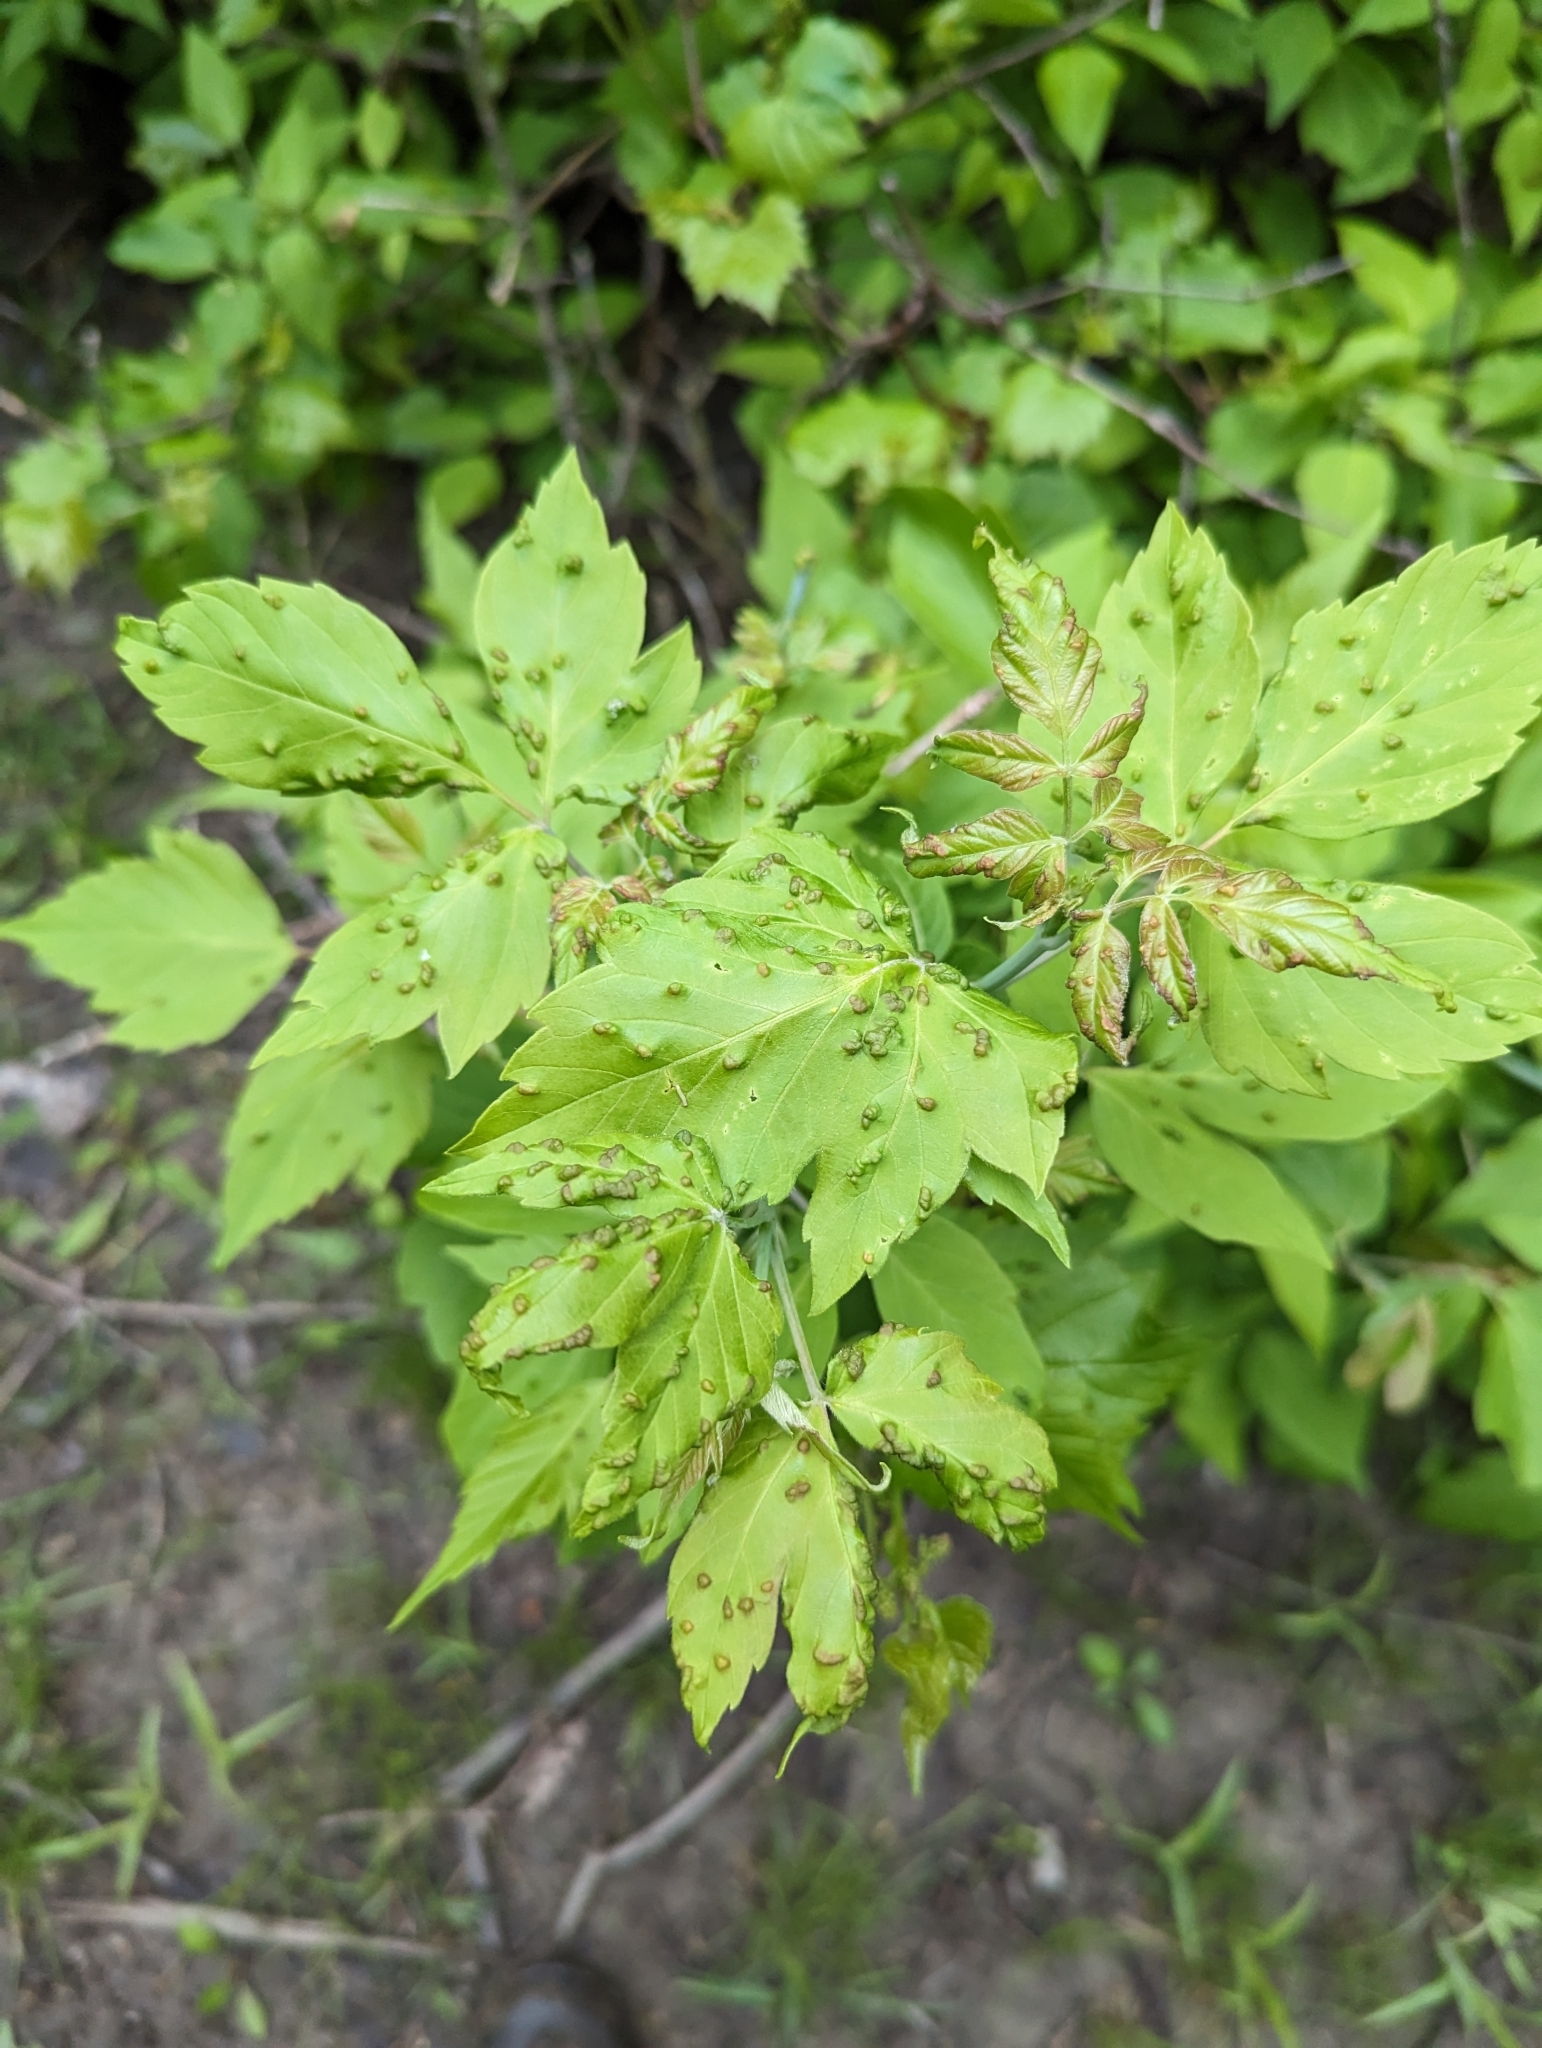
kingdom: Animalia
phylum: Arthropoda
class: Arachnida
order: Trombidiformes
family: Eriophyidae
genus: Aceria
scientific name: Aceria
